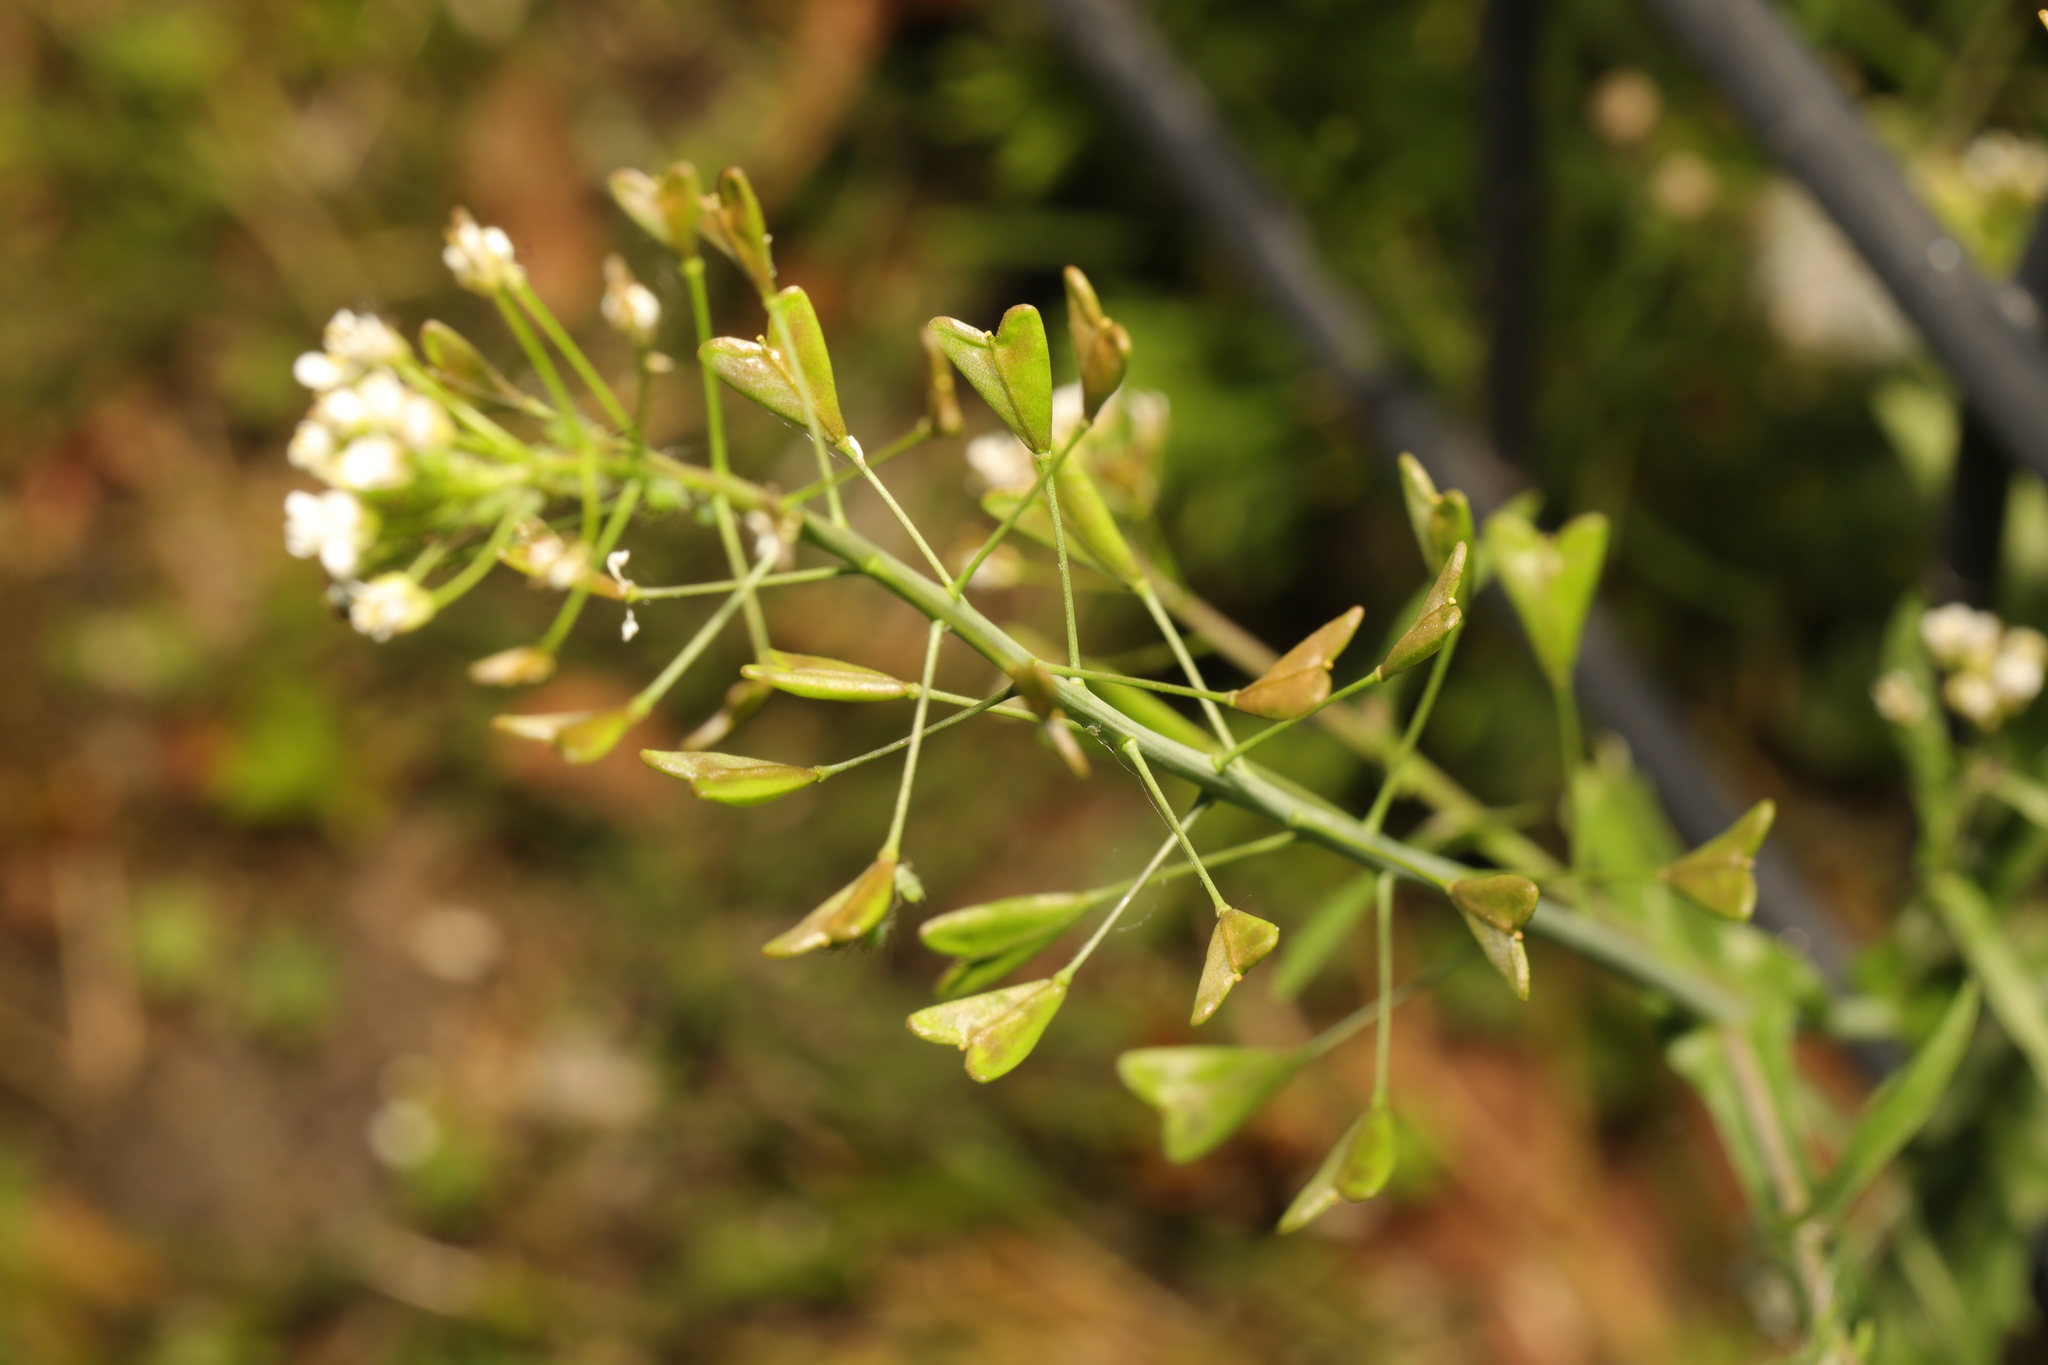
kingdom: Plantae
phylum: Tracheophyta
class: Magnoliopsida
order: Brassicales
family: Brassicaceae
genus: Capsella
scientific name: Capsella bursa-pastoris
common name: Shepherd's purse
